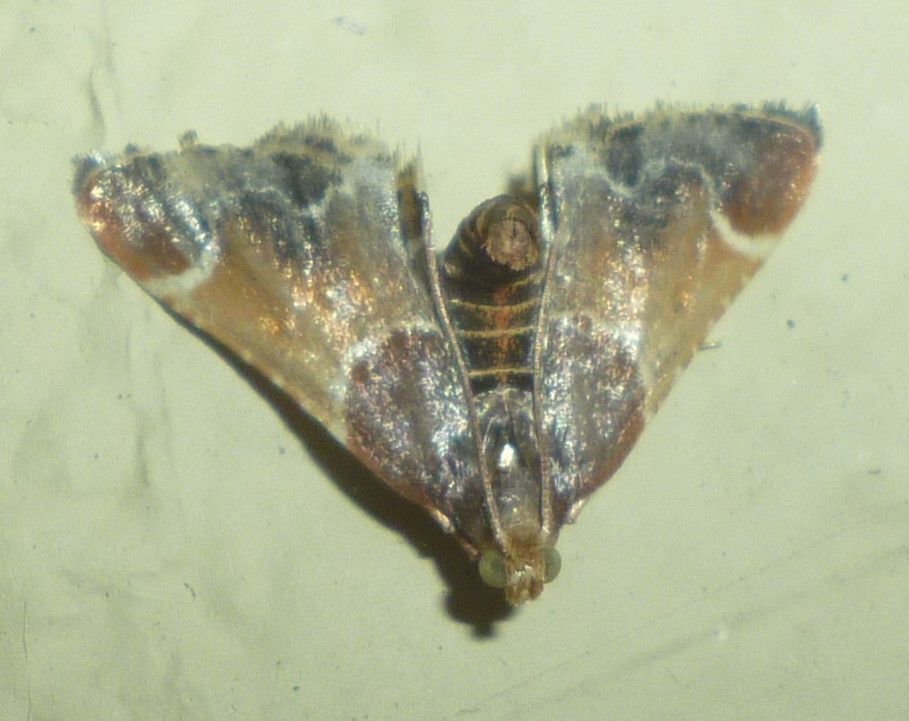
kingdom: Animalia
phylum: Arthropoda
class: Insecta
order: Lepidoptera
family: Pyralidae
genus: Pyralis
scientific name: Pyralis farinalis
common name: Meal moth
